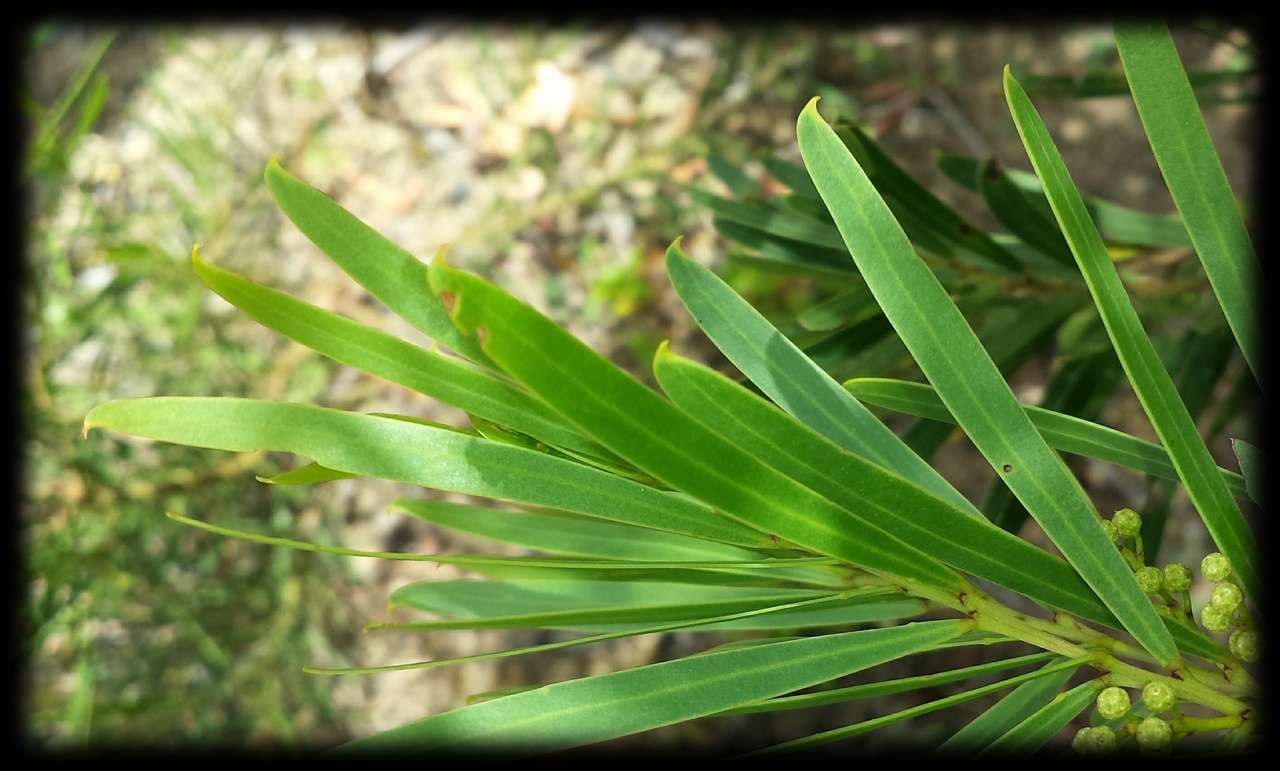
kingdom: Plantae
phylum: Tracheophyta
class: Magnoliopsida
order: Fabales
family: Fabaceae
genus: Acacia
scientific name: Acacia uncifolia
